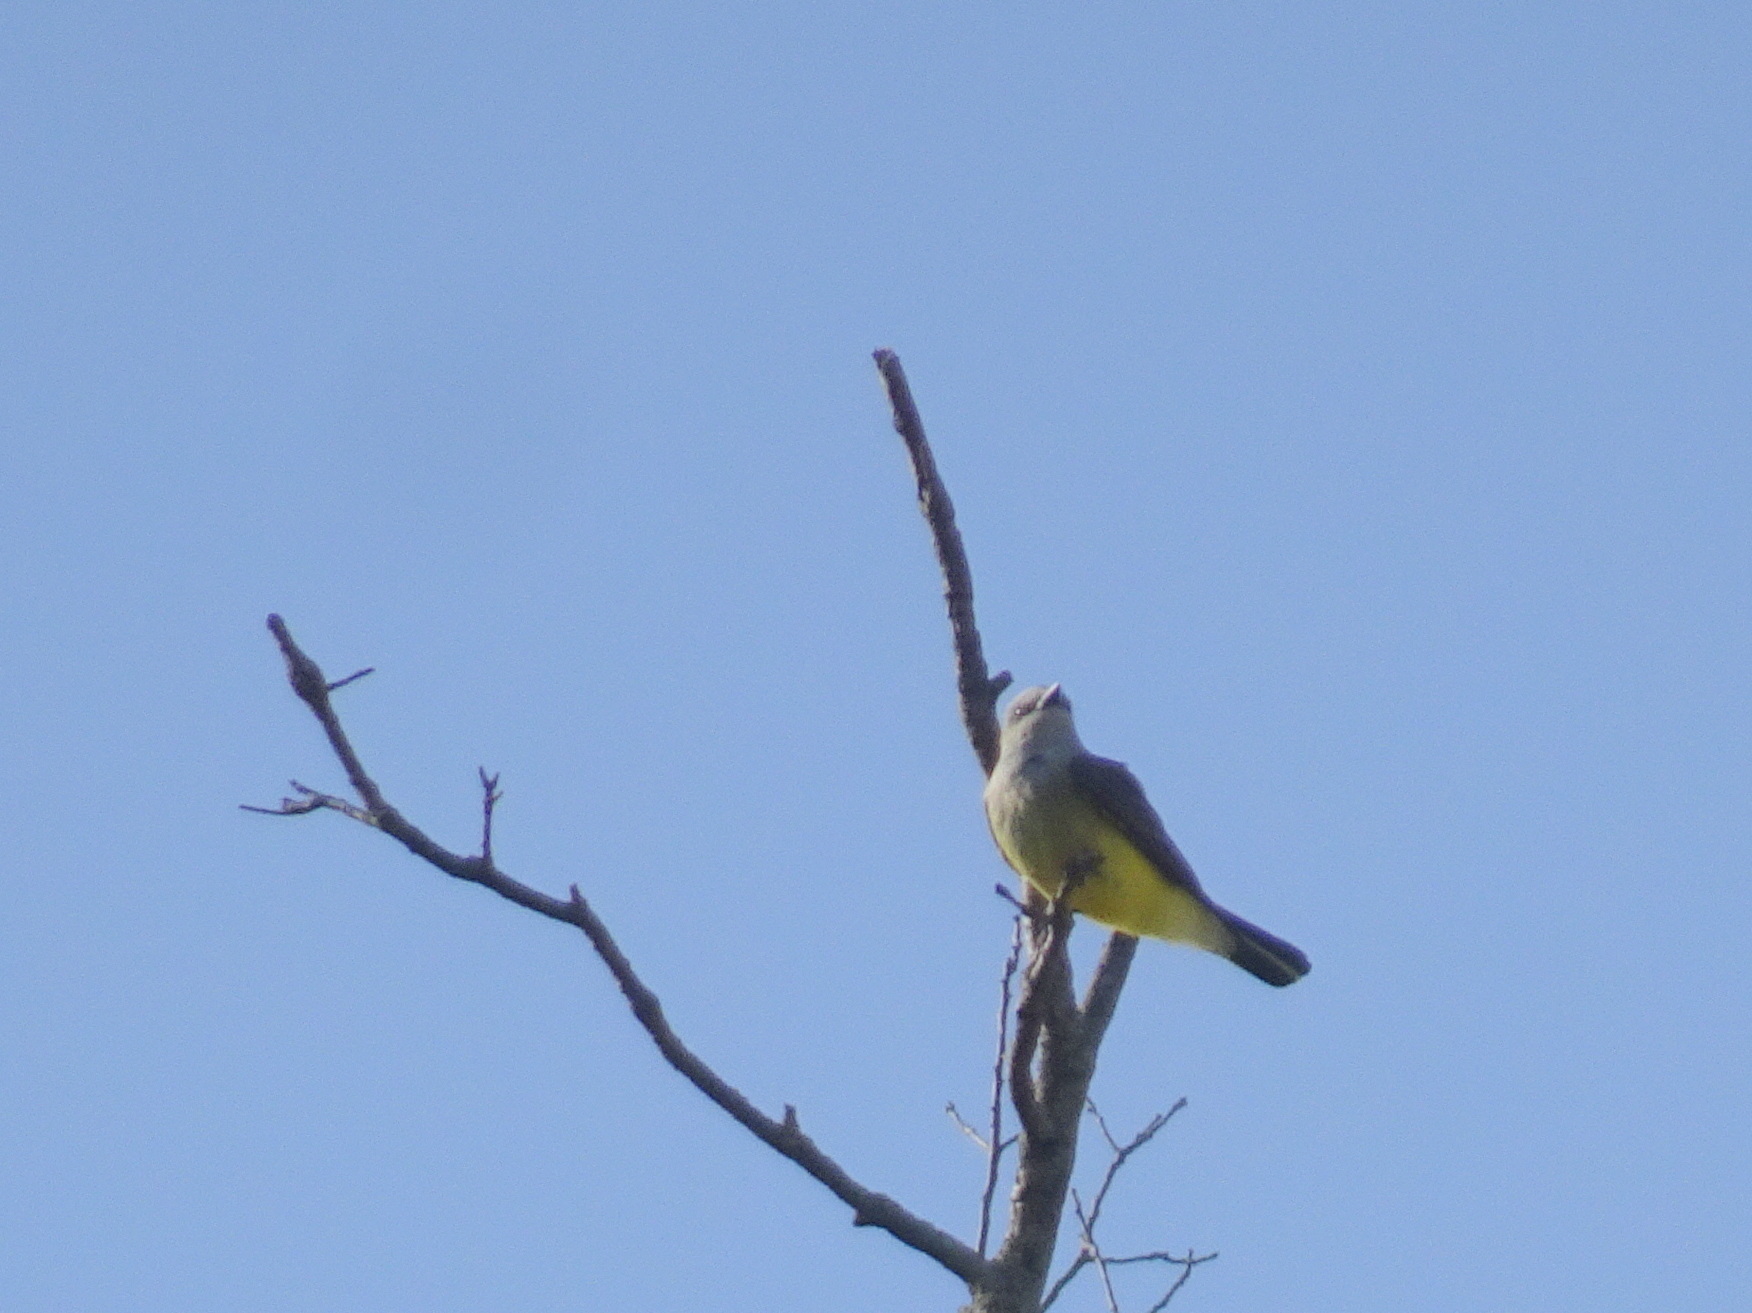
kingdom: Animalia
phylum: Chordata
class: Aves
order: Passeriformes
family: Tyrannidae
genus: Tyrannus
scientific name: Tyrannus verticalis
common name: Western kingbird
